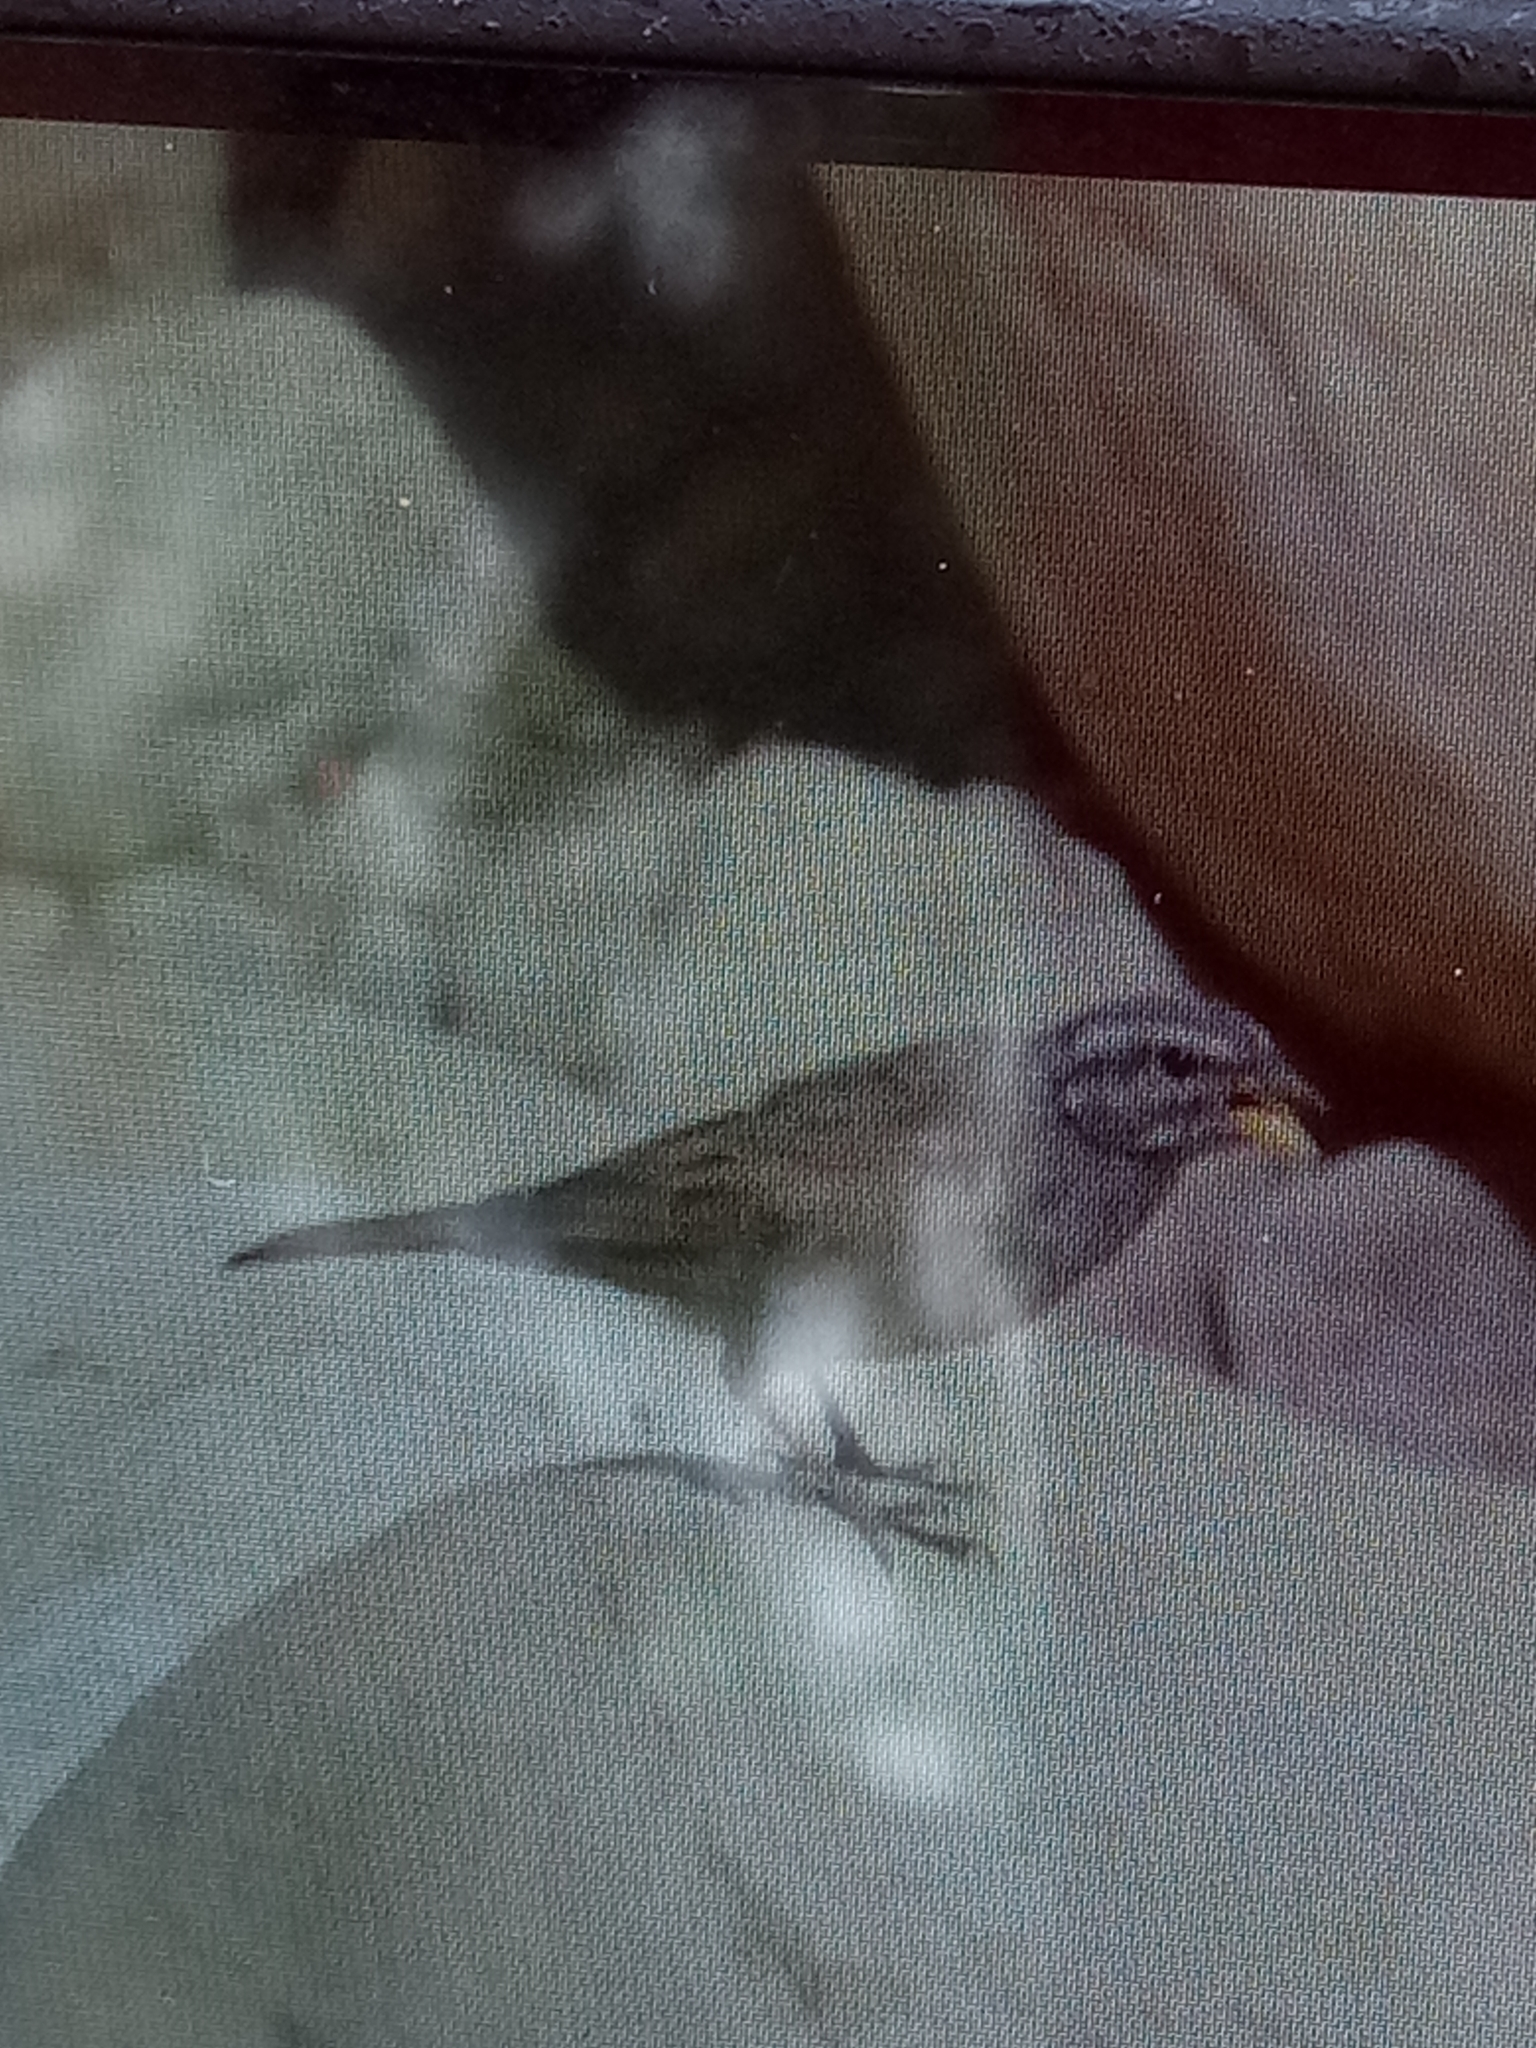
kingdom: Animalia
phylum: Chordata
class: Aves
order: Passeriformes
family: Emberizidae
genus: Emberiza
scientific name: Emberiza sahari
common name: House bunting
